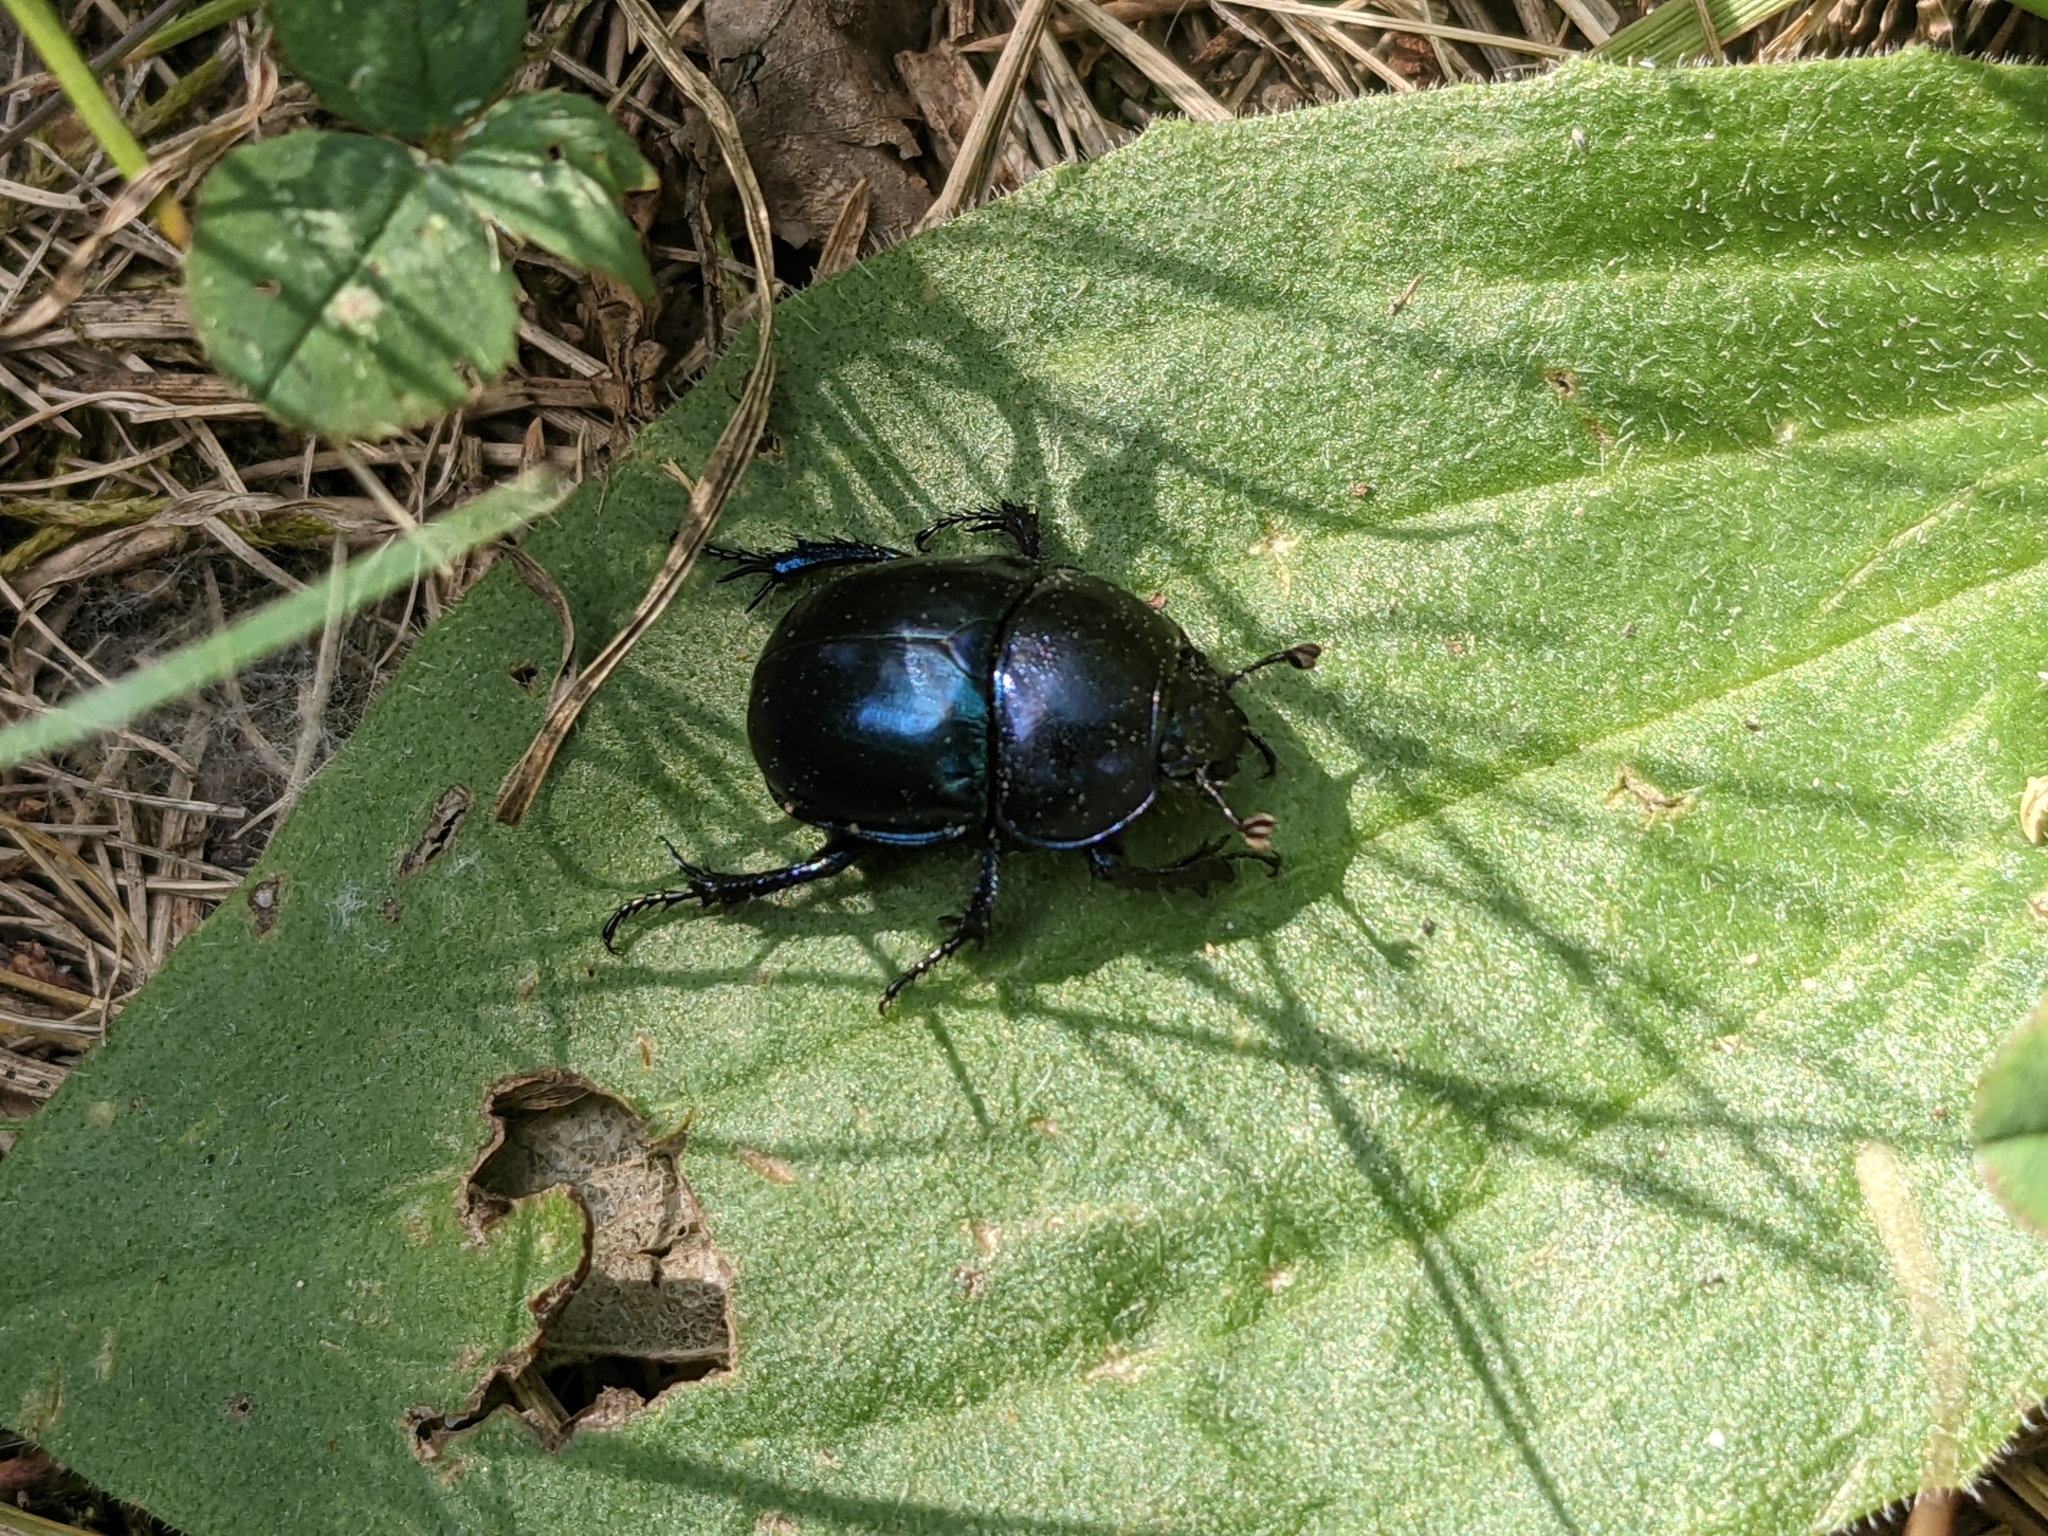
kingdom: Animalia
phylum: Arthropoda
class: Insecta
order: Coleoptera
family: Geotrupidae
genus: Trypocopris
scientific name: Trypocopris vernalis
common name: Spring dumbledor
